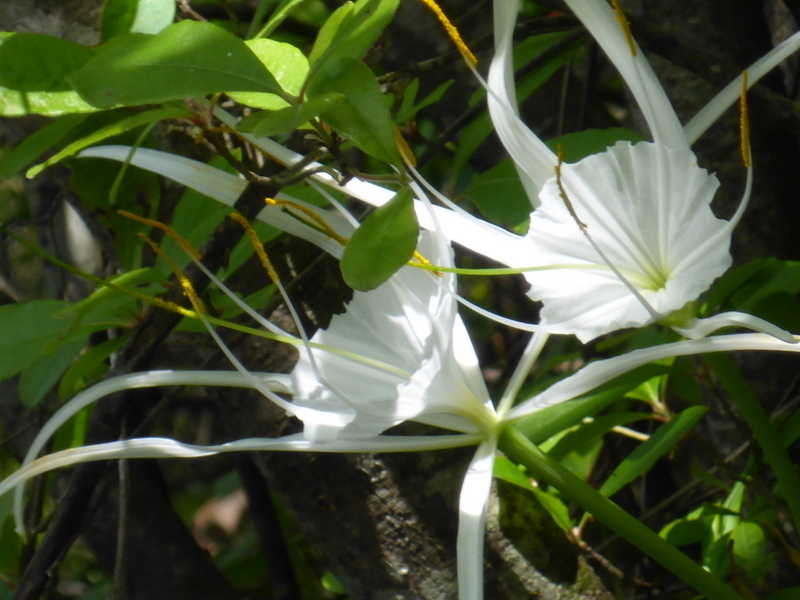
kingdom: Plantae
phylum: Tracheophyta
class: Liliopsida
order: Asparagales
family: Amaryllidaceae
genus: Hymenocallis
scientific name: Hymenocallis franklinensis
